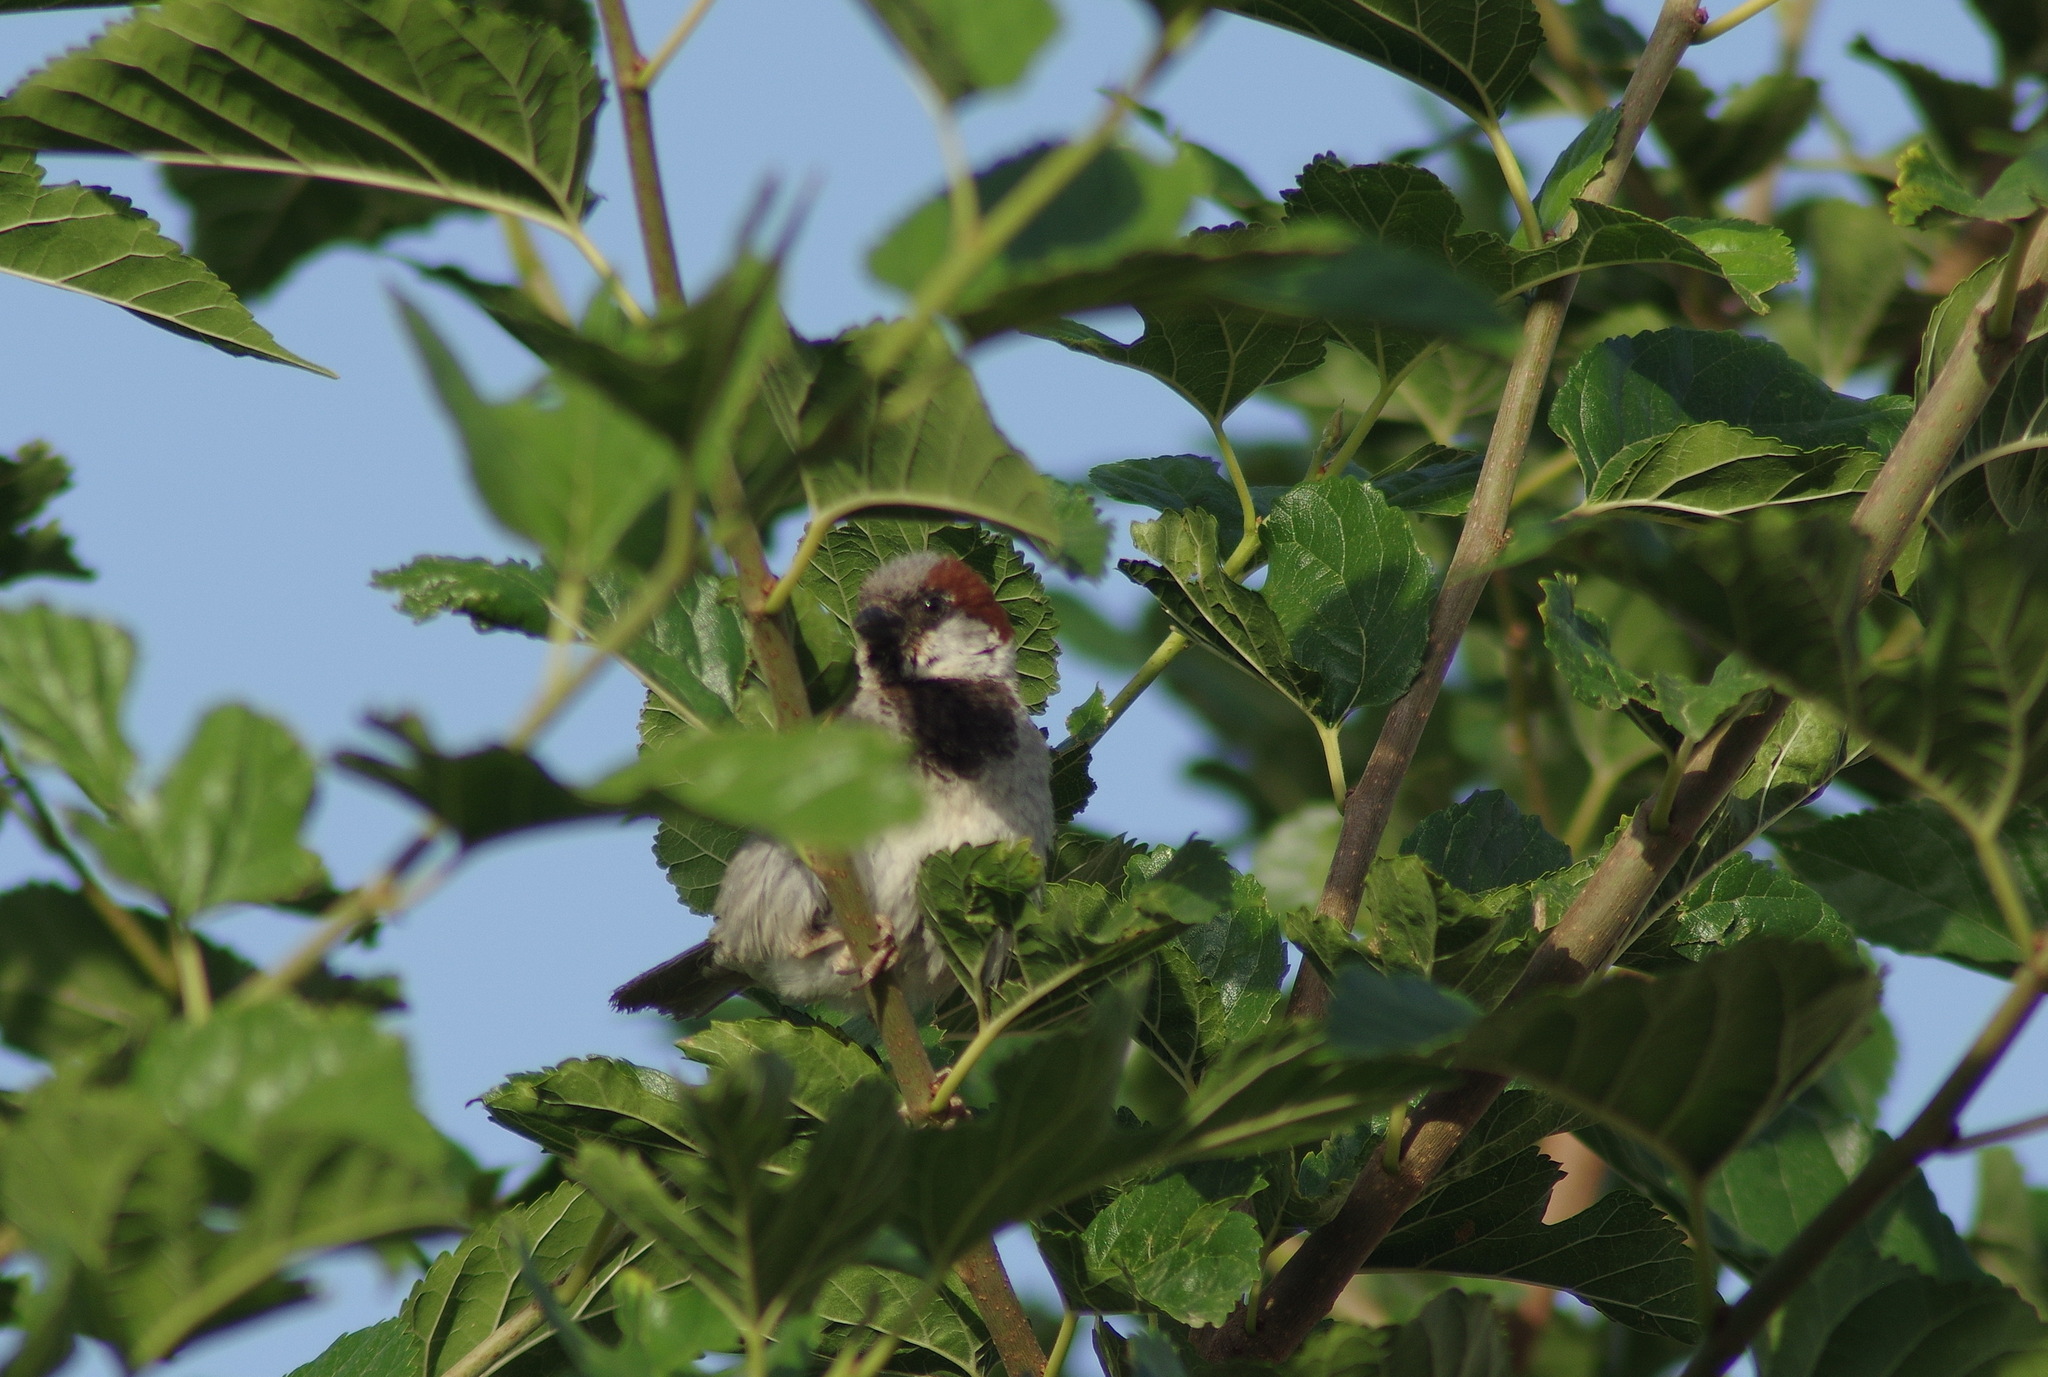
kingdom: Animalia
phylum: Chordata
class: Aves
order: Passeriformes
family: Passeridae
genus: Passer
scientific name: Passer domesticus
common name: House sparrow
